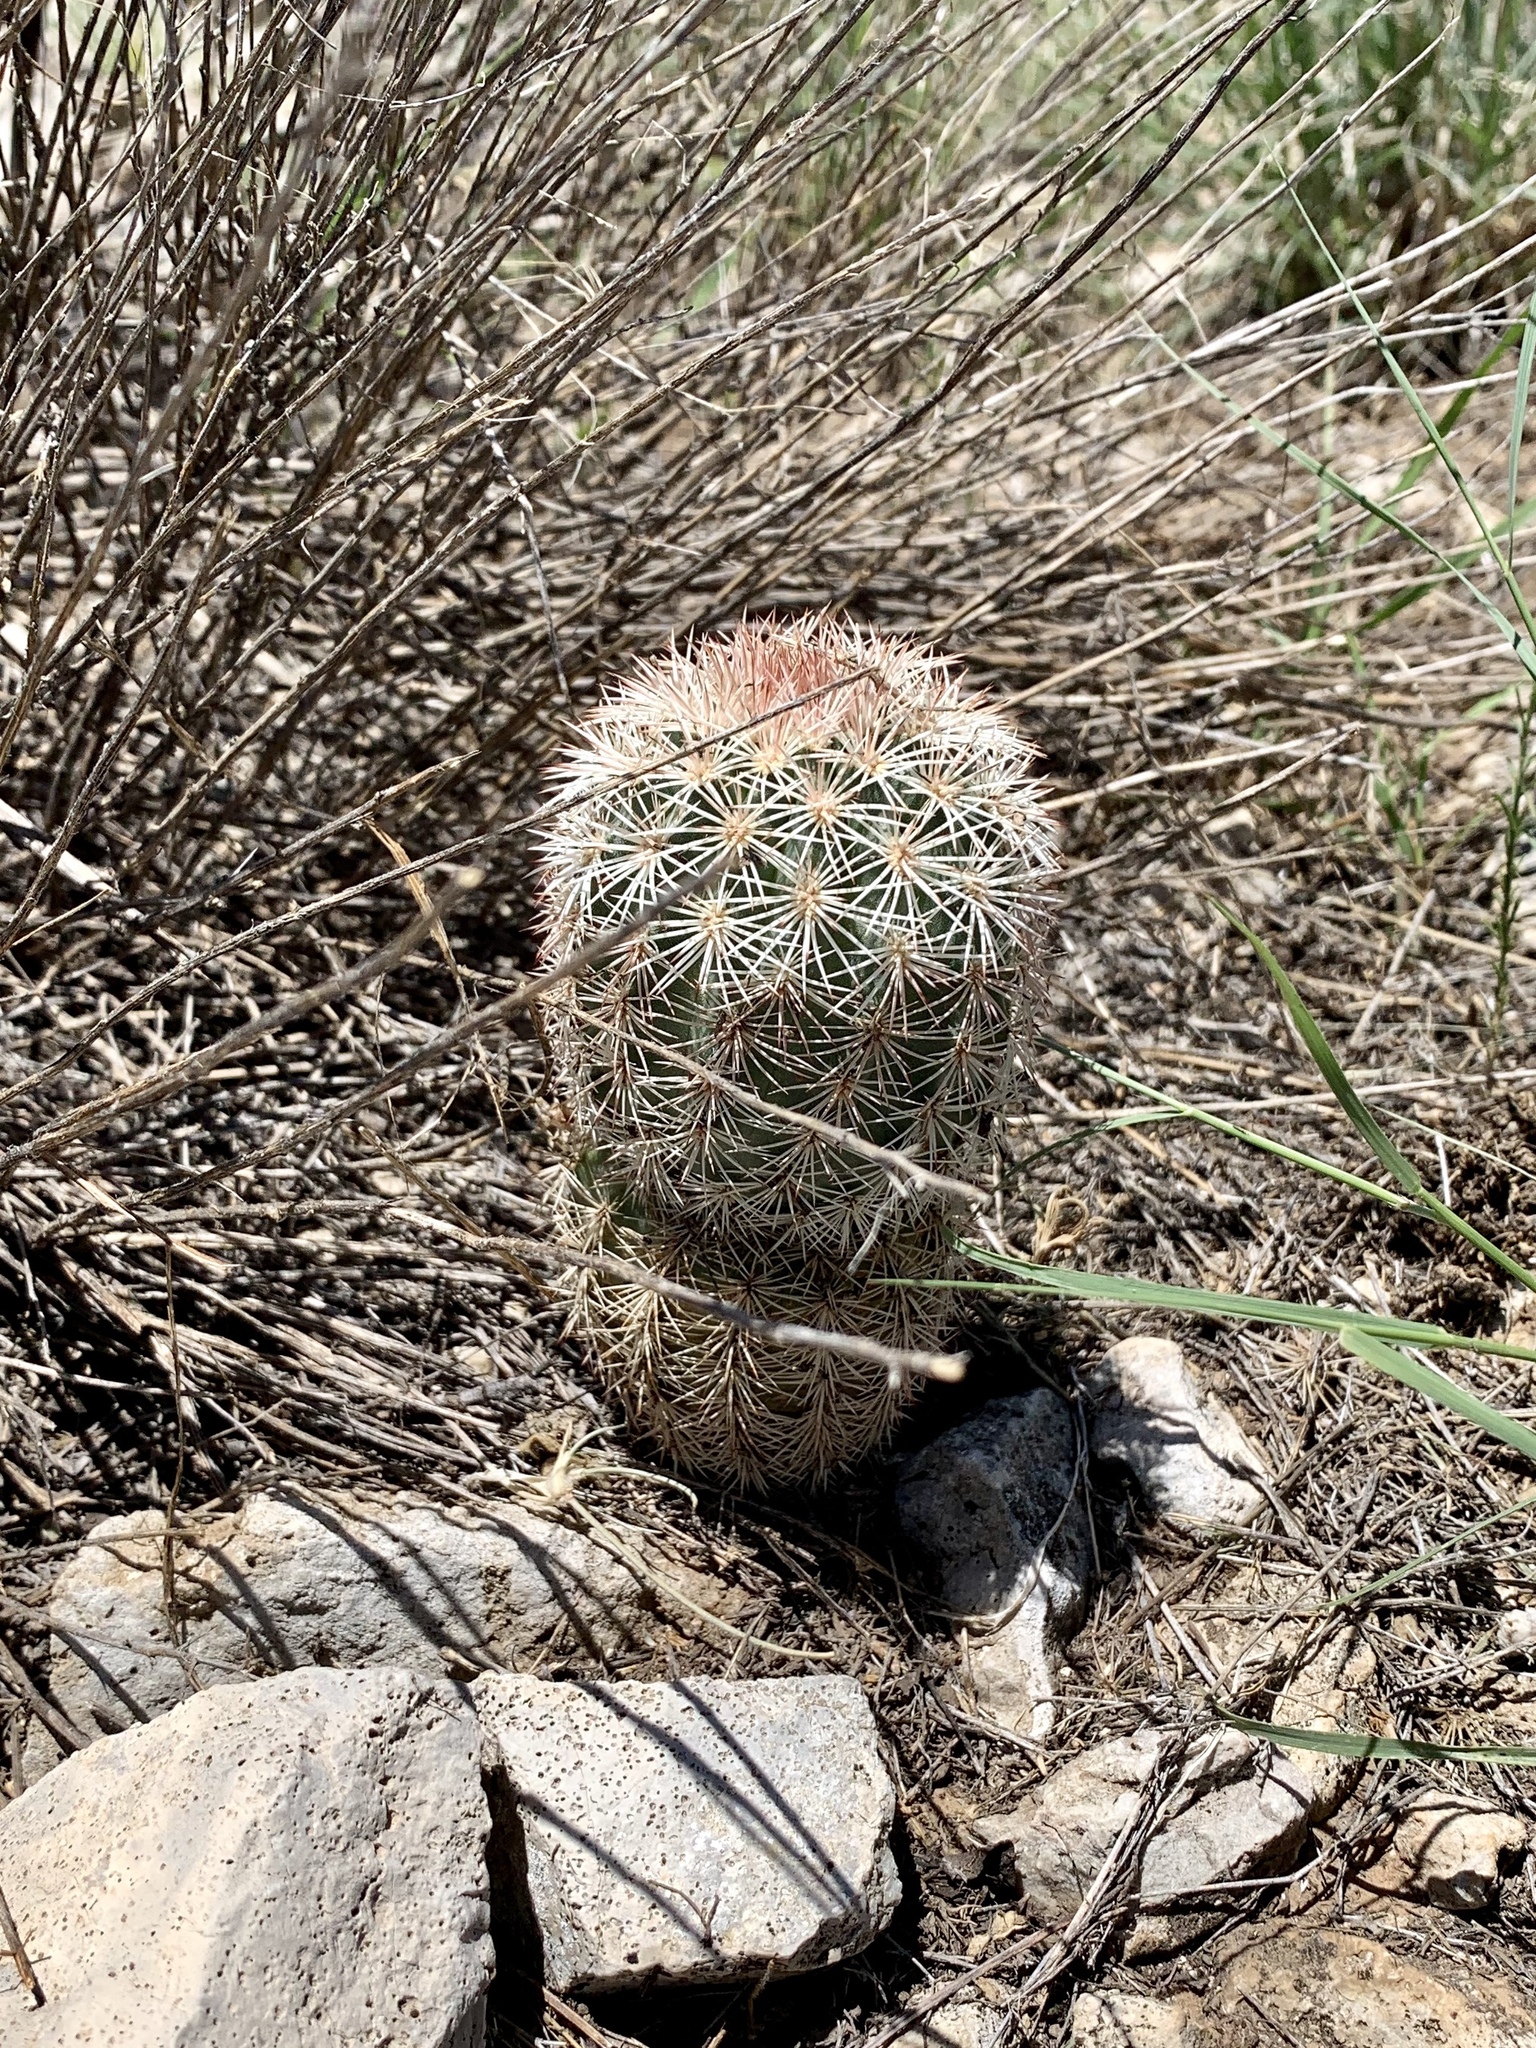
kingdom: Plantae
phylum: Tracheophyta
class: Magnoliopsida
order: Caryophyllales
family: Cactaceae
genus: Echinocereus
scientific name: Echinocereus dasyacanthus
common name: Spiny hedgehog cactus
